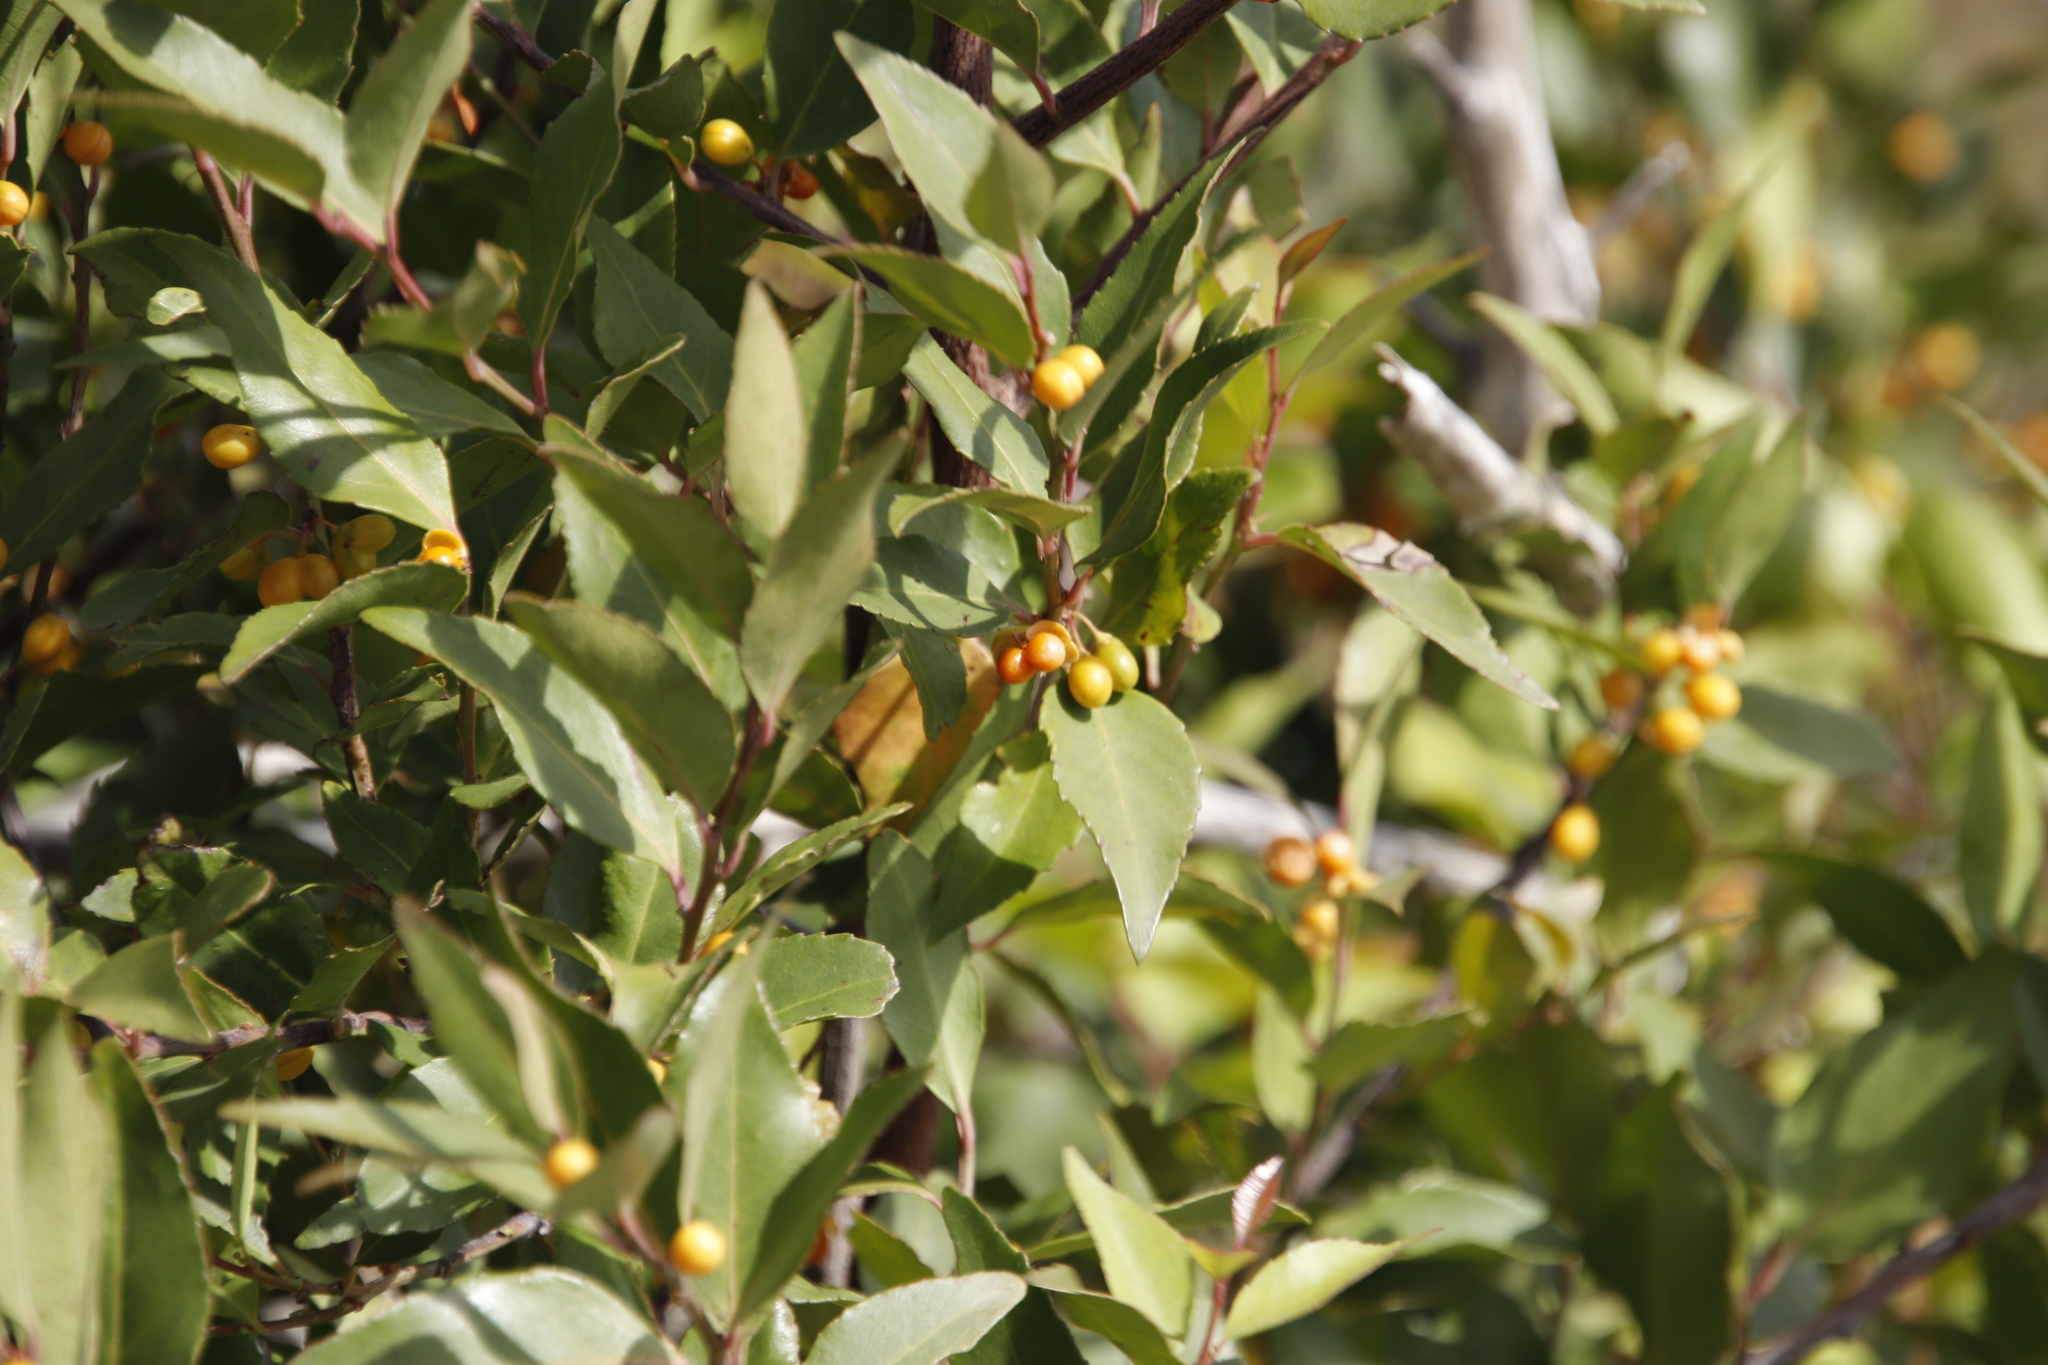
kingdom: Plantae
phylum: Tracheophyta
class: Magnoliopsida
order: Celastrales
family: Celastraceae
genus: Gymnosporia
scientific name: Gymnosporia acuminata
